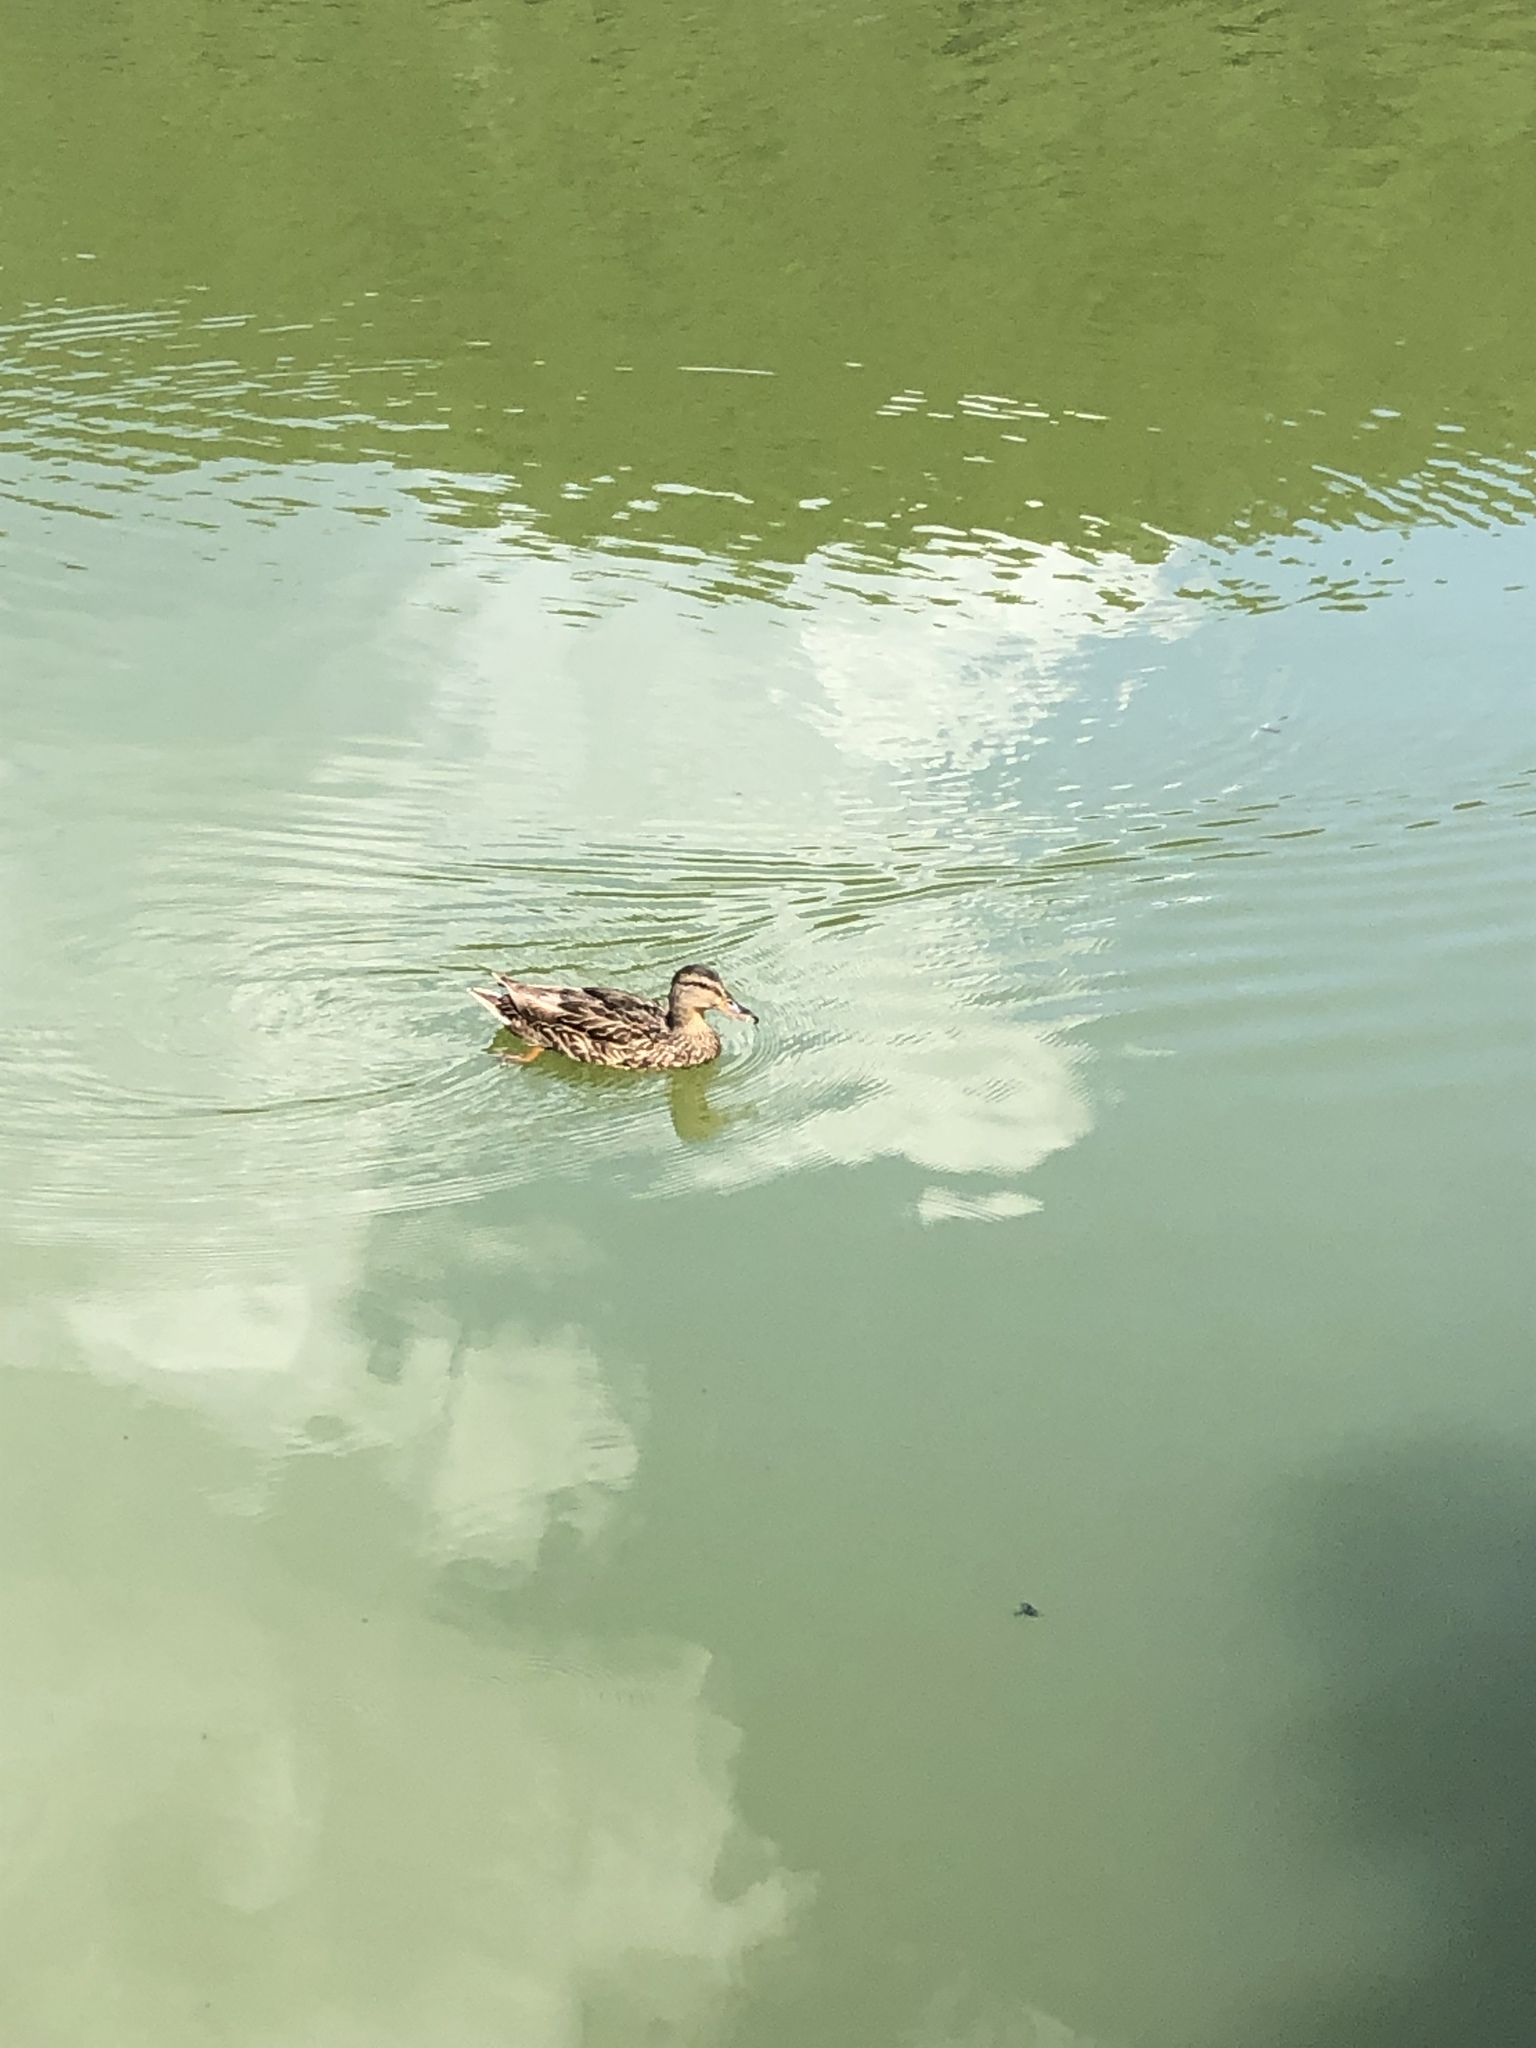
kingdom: Animalia
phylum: Chordata
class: Aves
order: Anseriformes
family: Anatidae
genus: Anas
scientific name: Anas platyrhynchos
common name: Mallard
